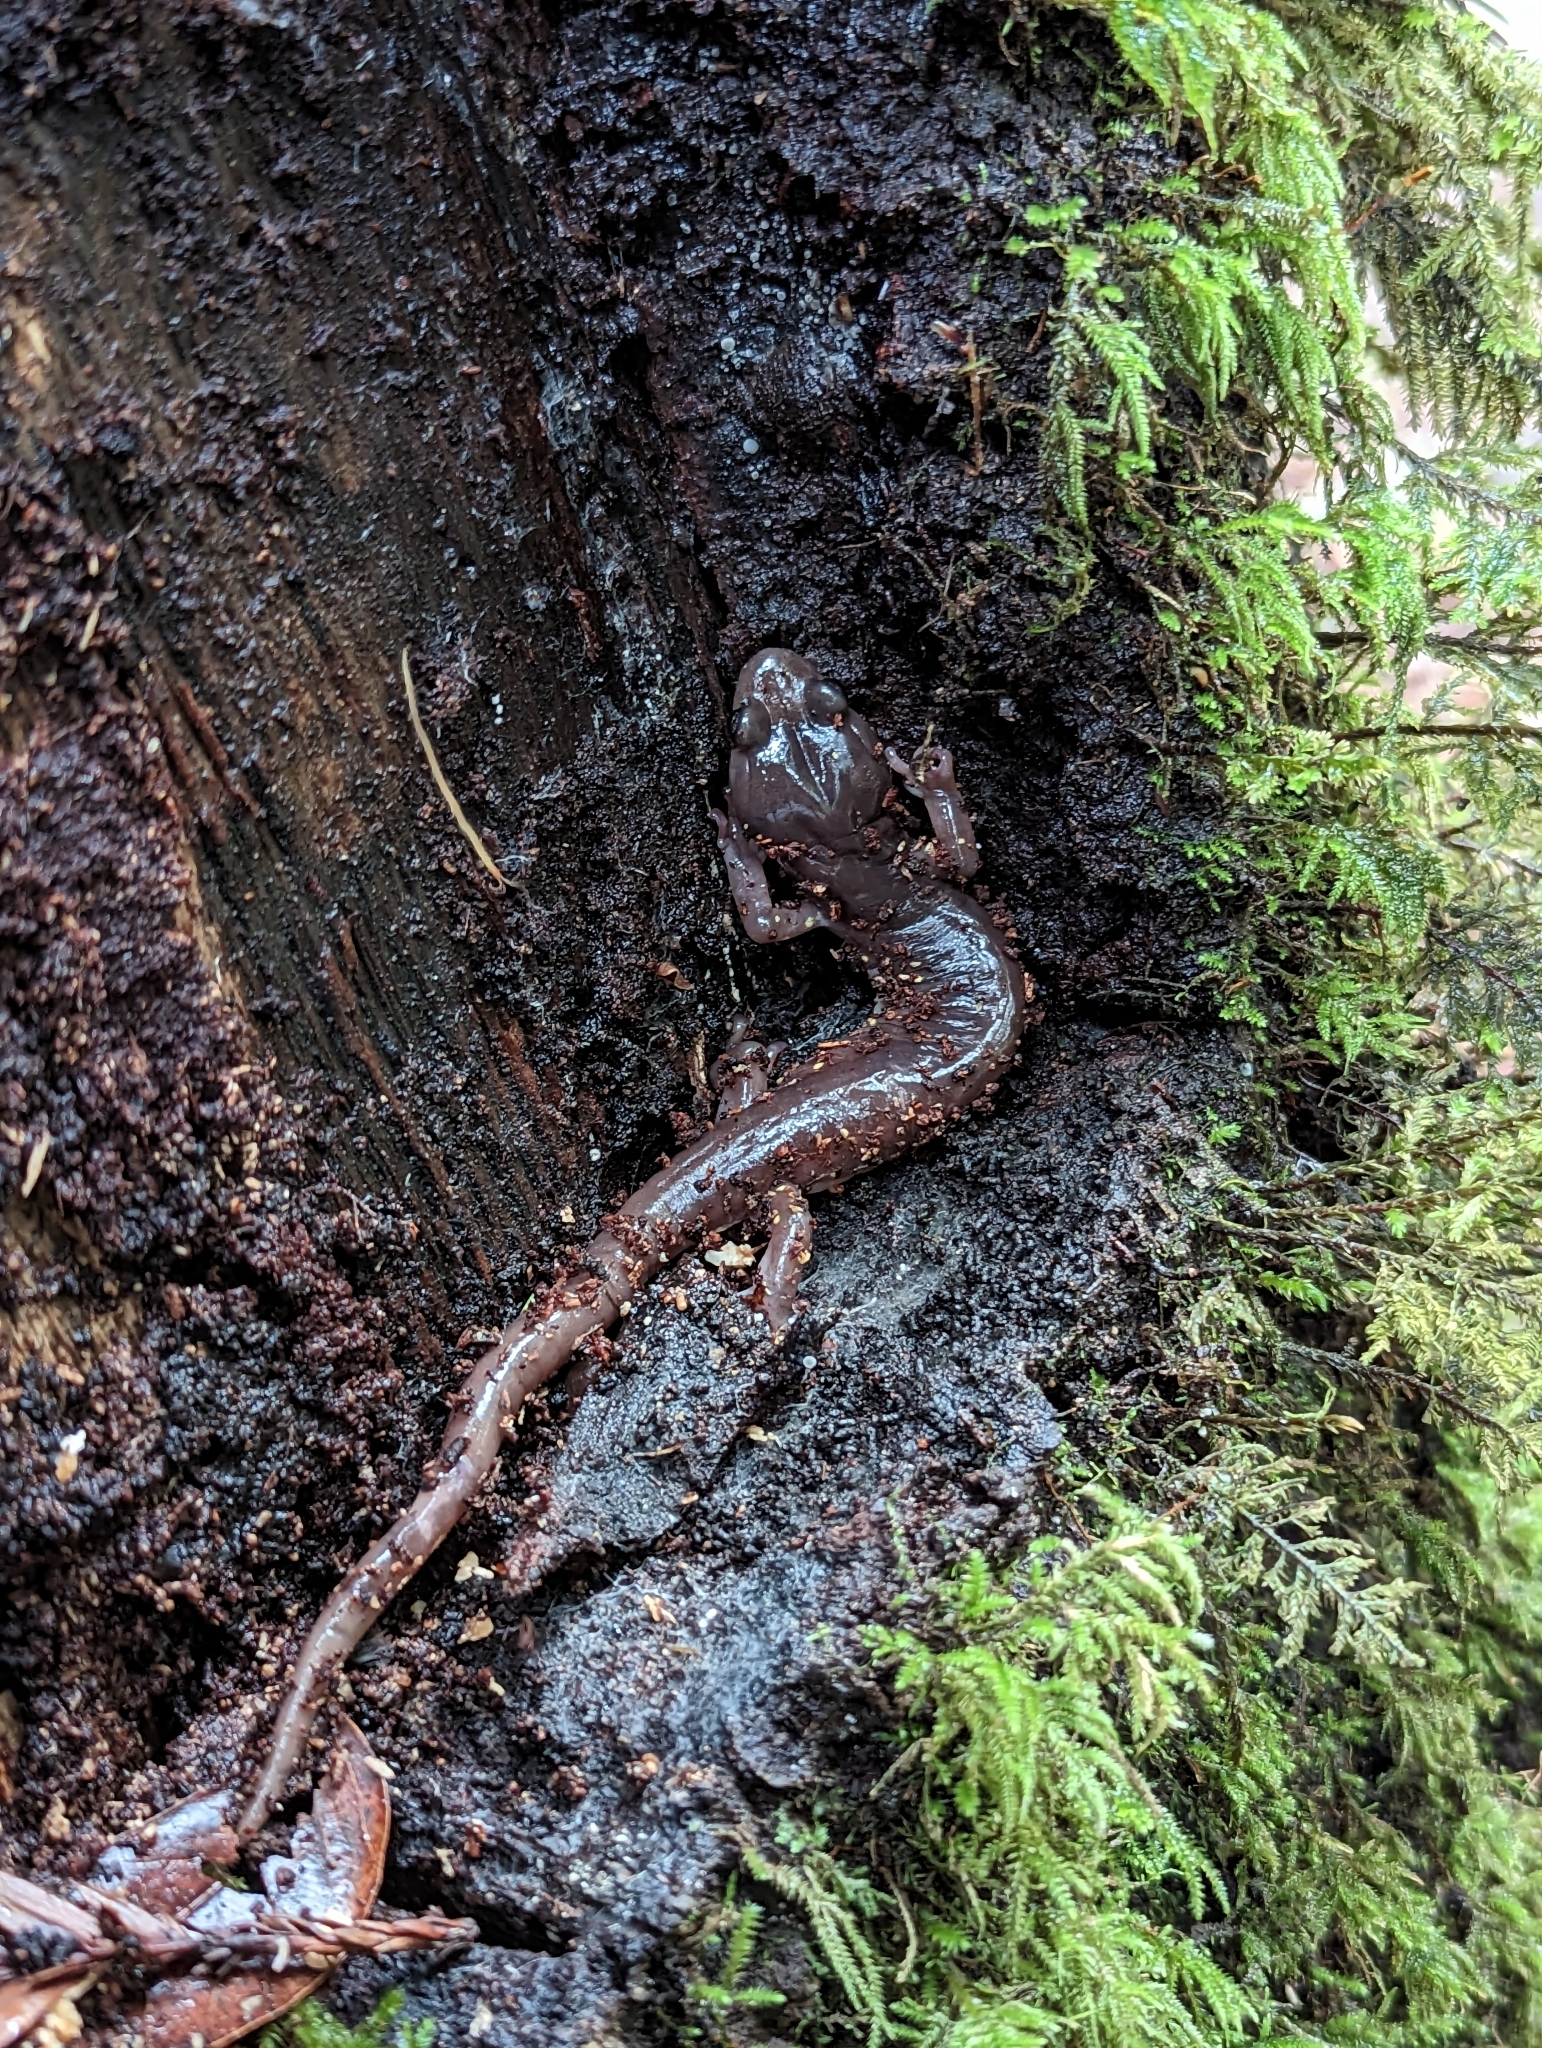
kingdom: Animalia
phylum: Chordata
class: Amphibia
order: Caudata
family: Plethodontidae
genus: Aneides
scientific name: Aneides lugubris
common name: Arboreal salamander
